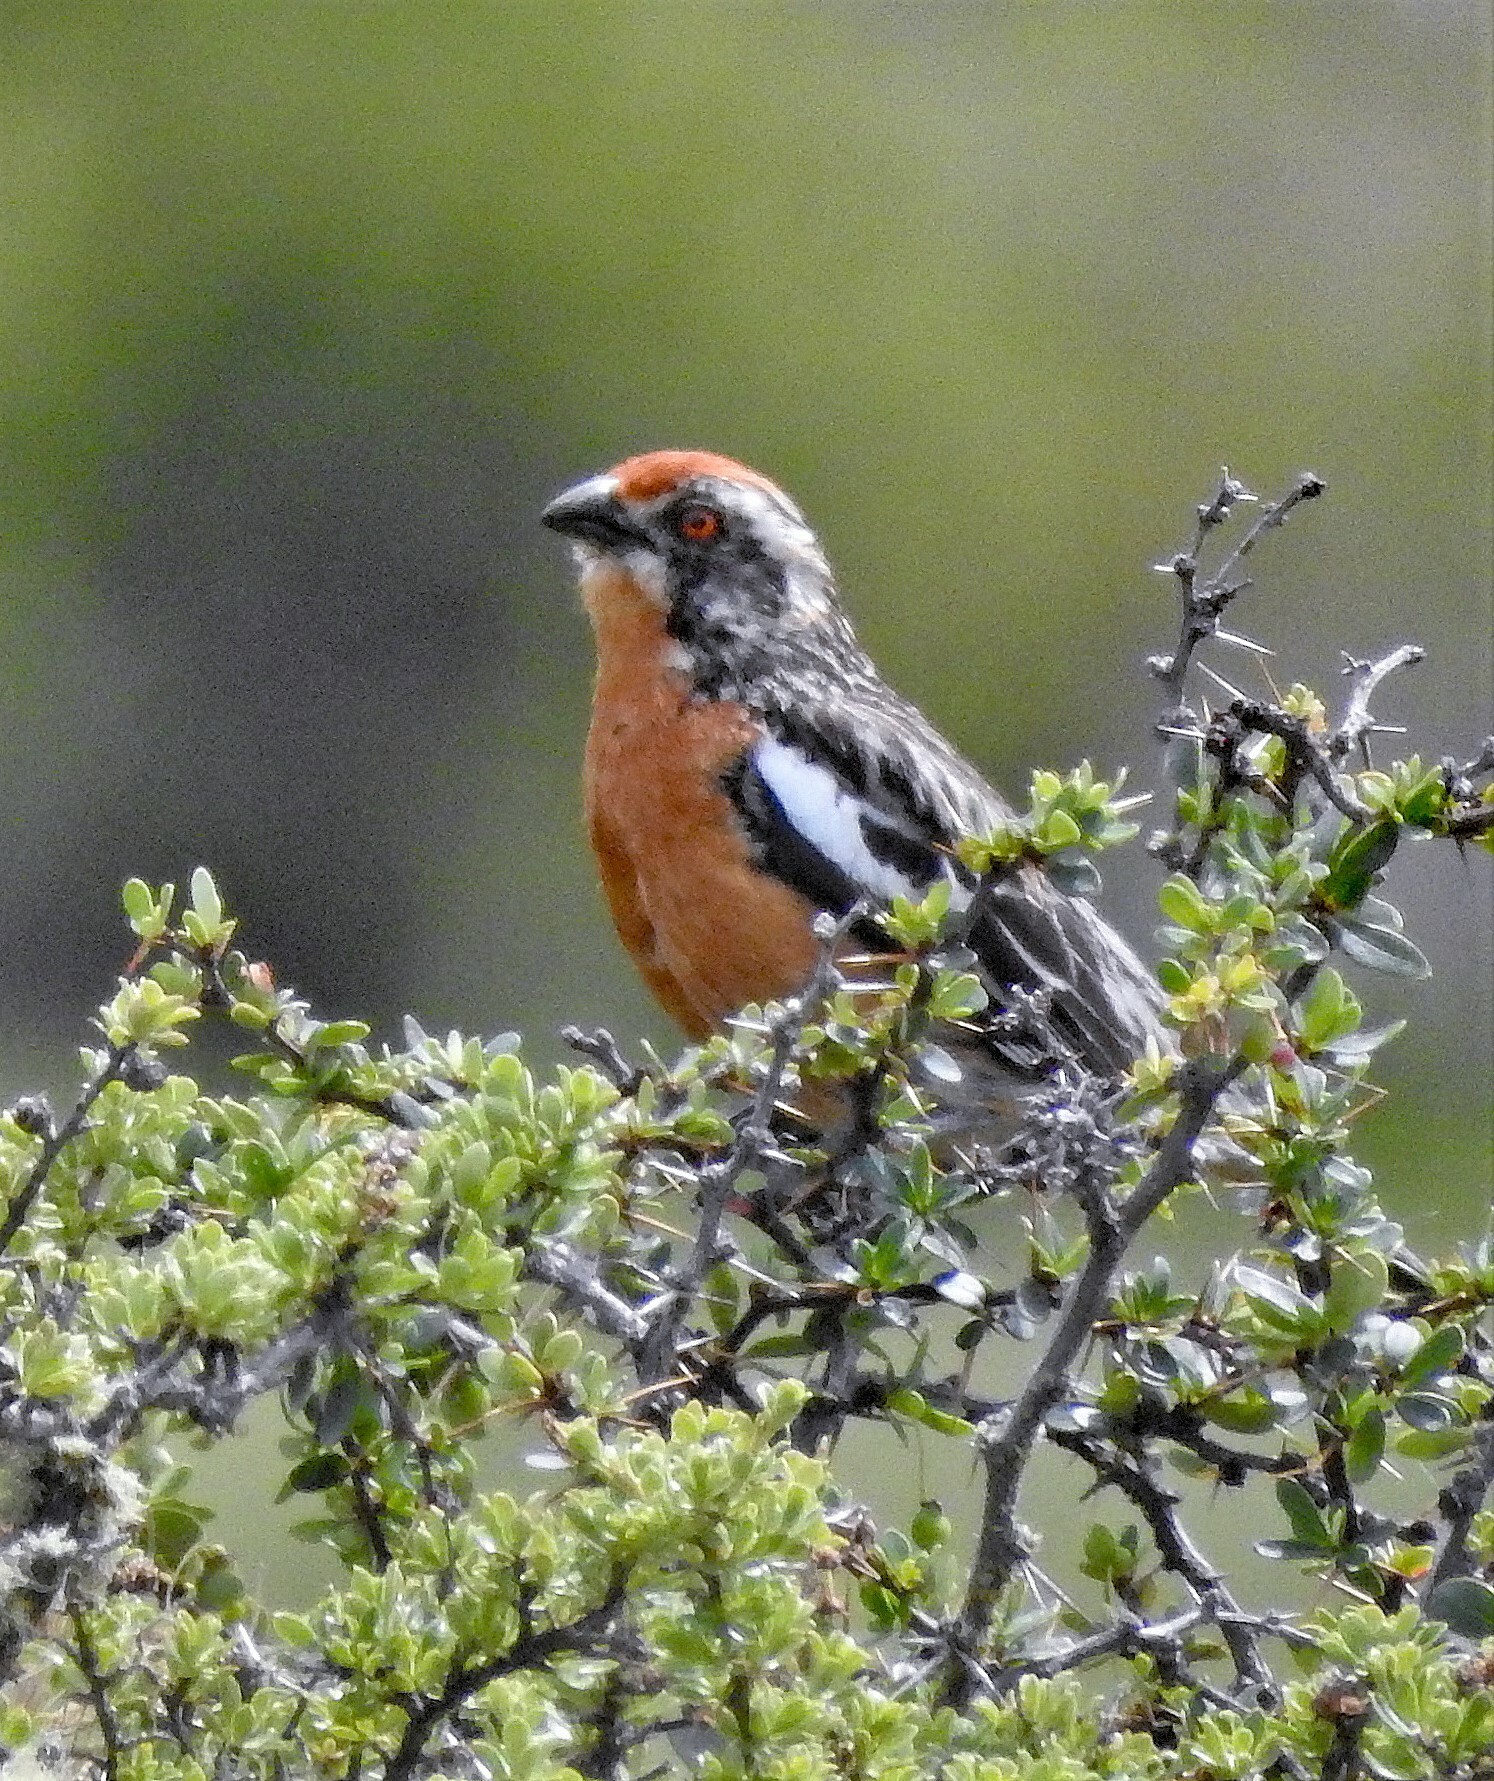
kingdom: Animalia
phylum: Chordata
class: Aves
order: Passeriformes
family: Cotingidae
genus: Phytotoma
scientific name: Phytotoma rara
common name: Rufous-tailed plantcutter
